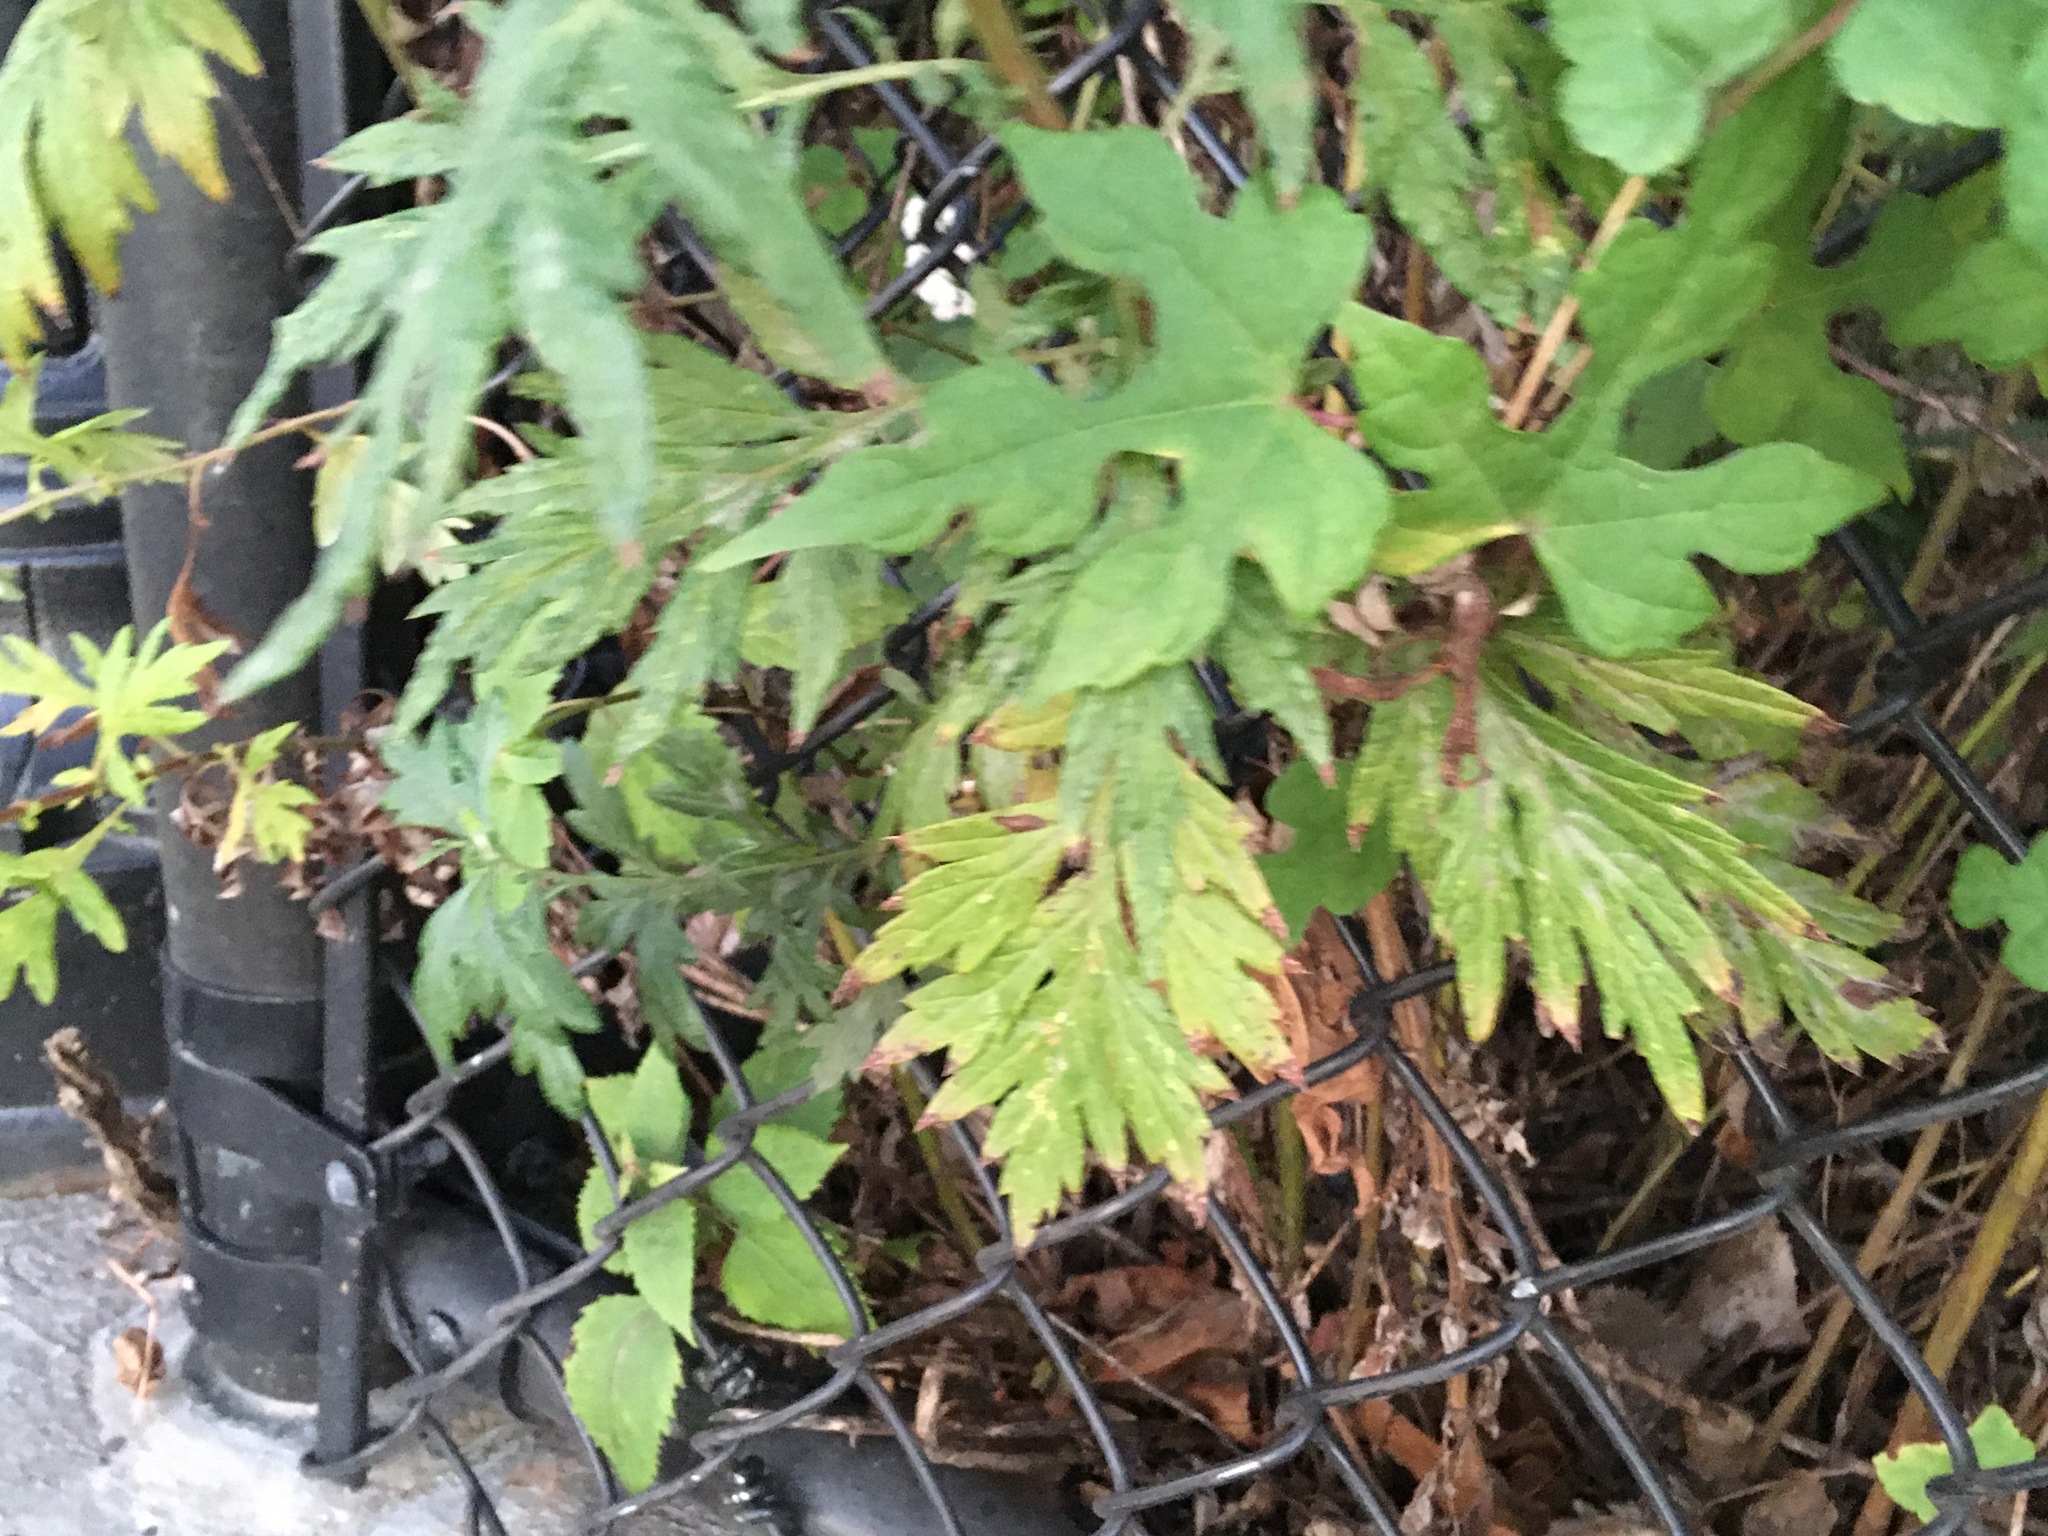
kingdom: Plantae
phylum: Tracheophyta
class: Magnoliopsida
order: Asterales
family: Asteraceae
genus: Artemisia
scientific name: Artemisia vulgaris
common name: Mugwort
